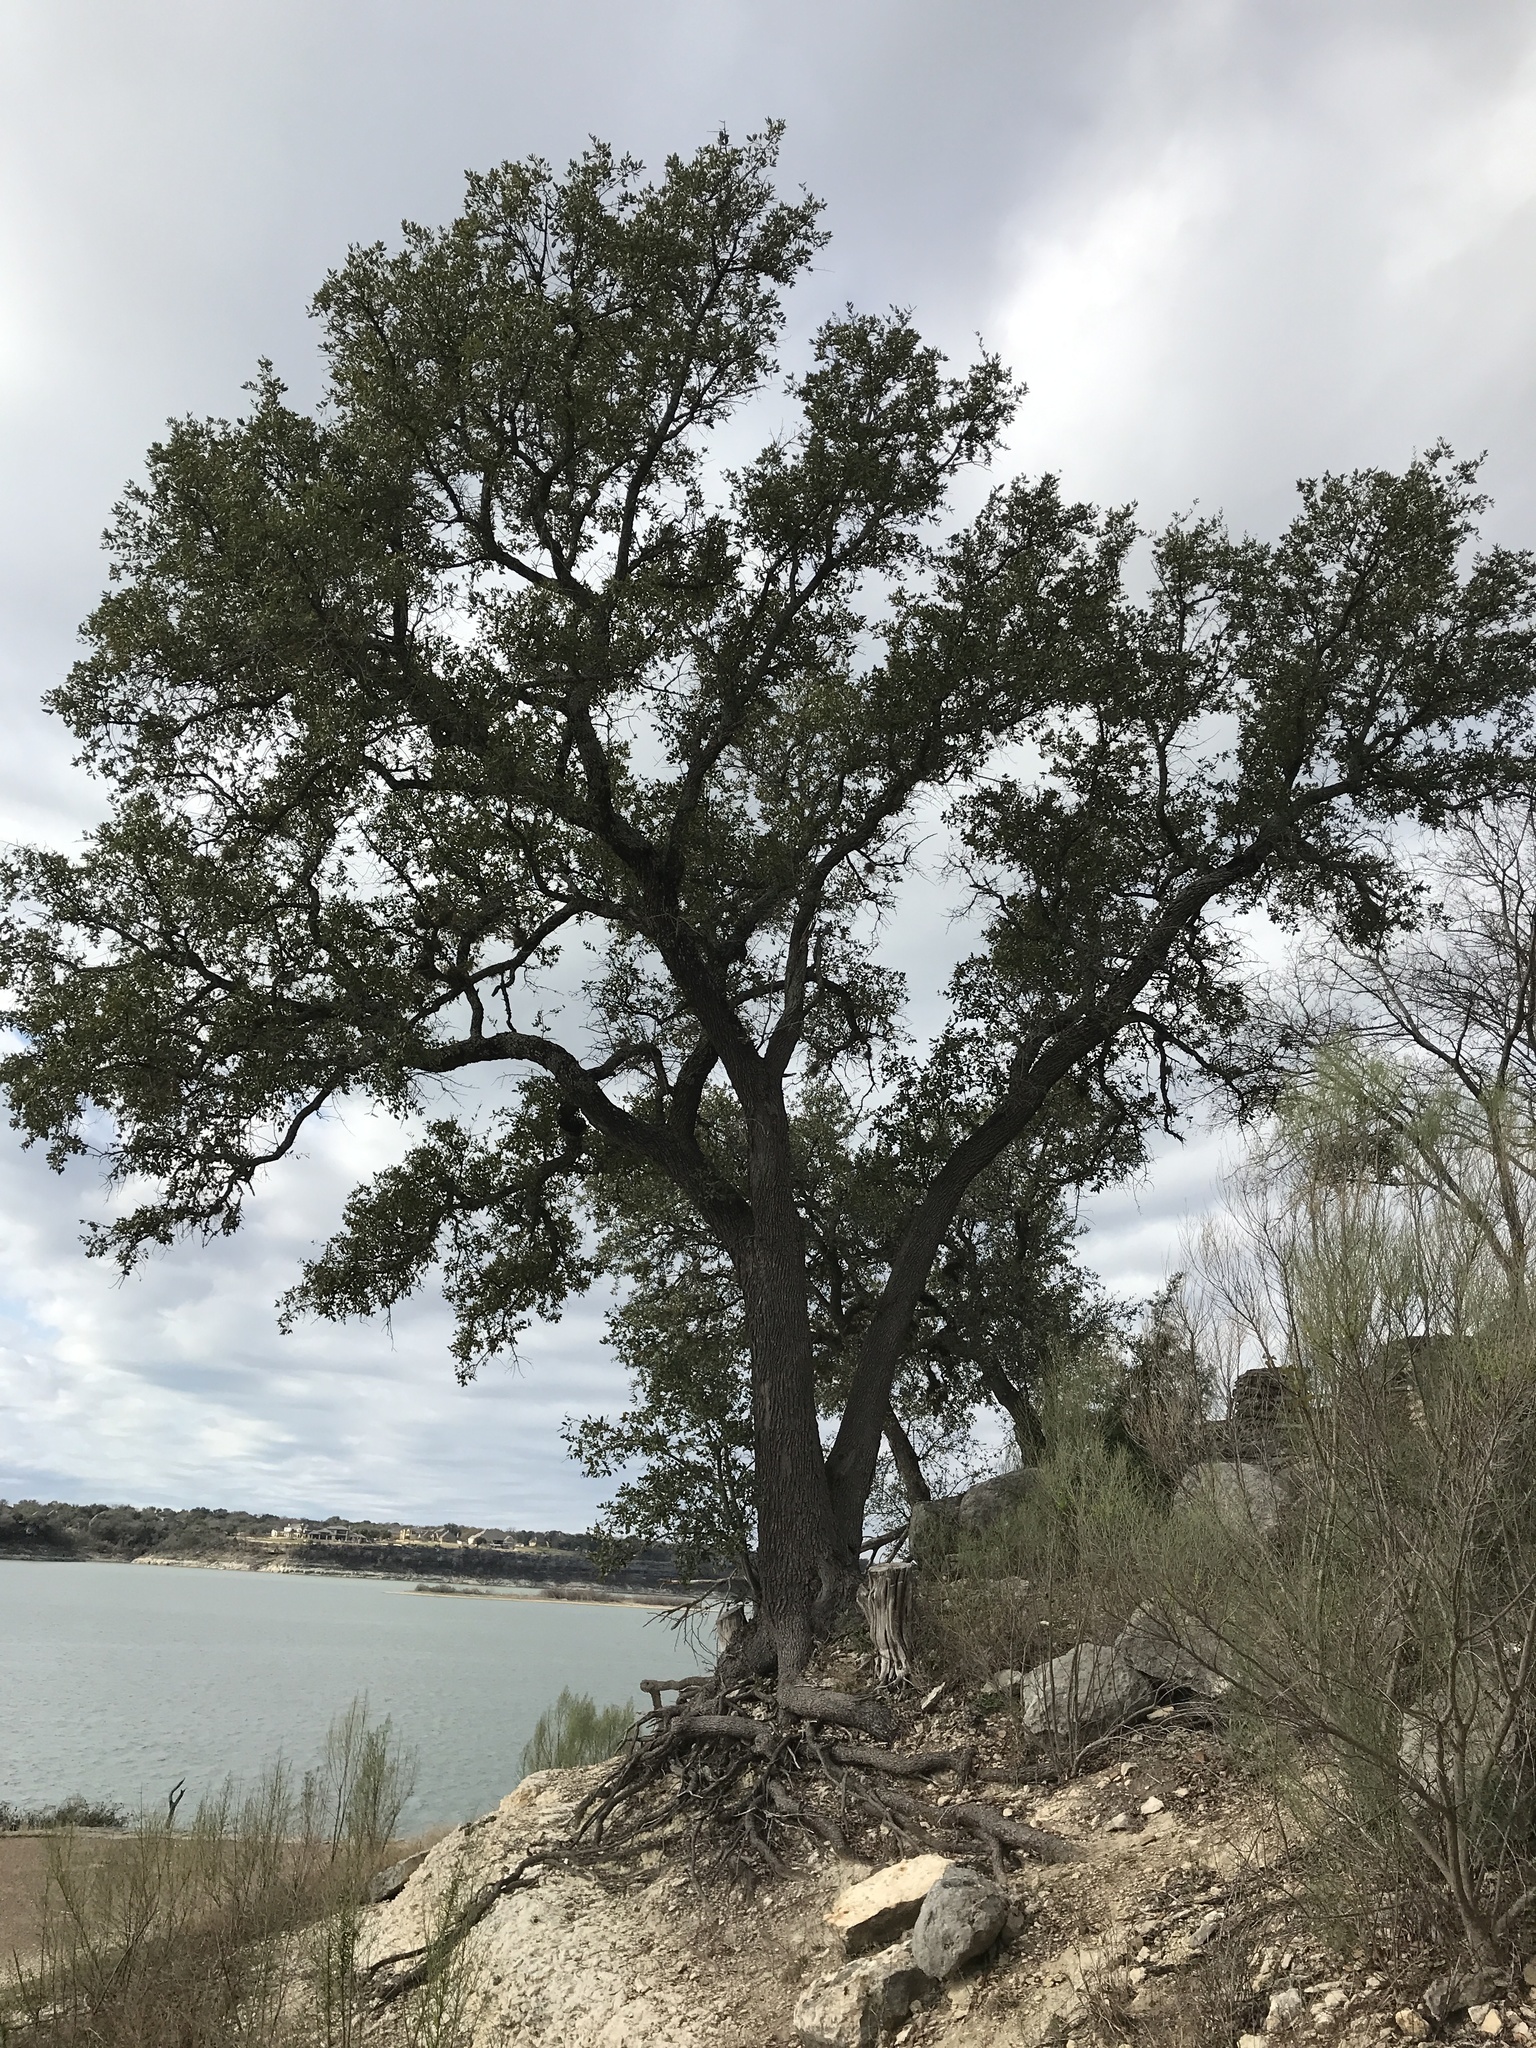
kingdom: Plantae
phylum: Tracheophyta
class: Magnoliopsida
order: Fagales
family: Fagaceae
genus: Quercus
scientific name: Quercus fusiformis
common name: Texas live oak
